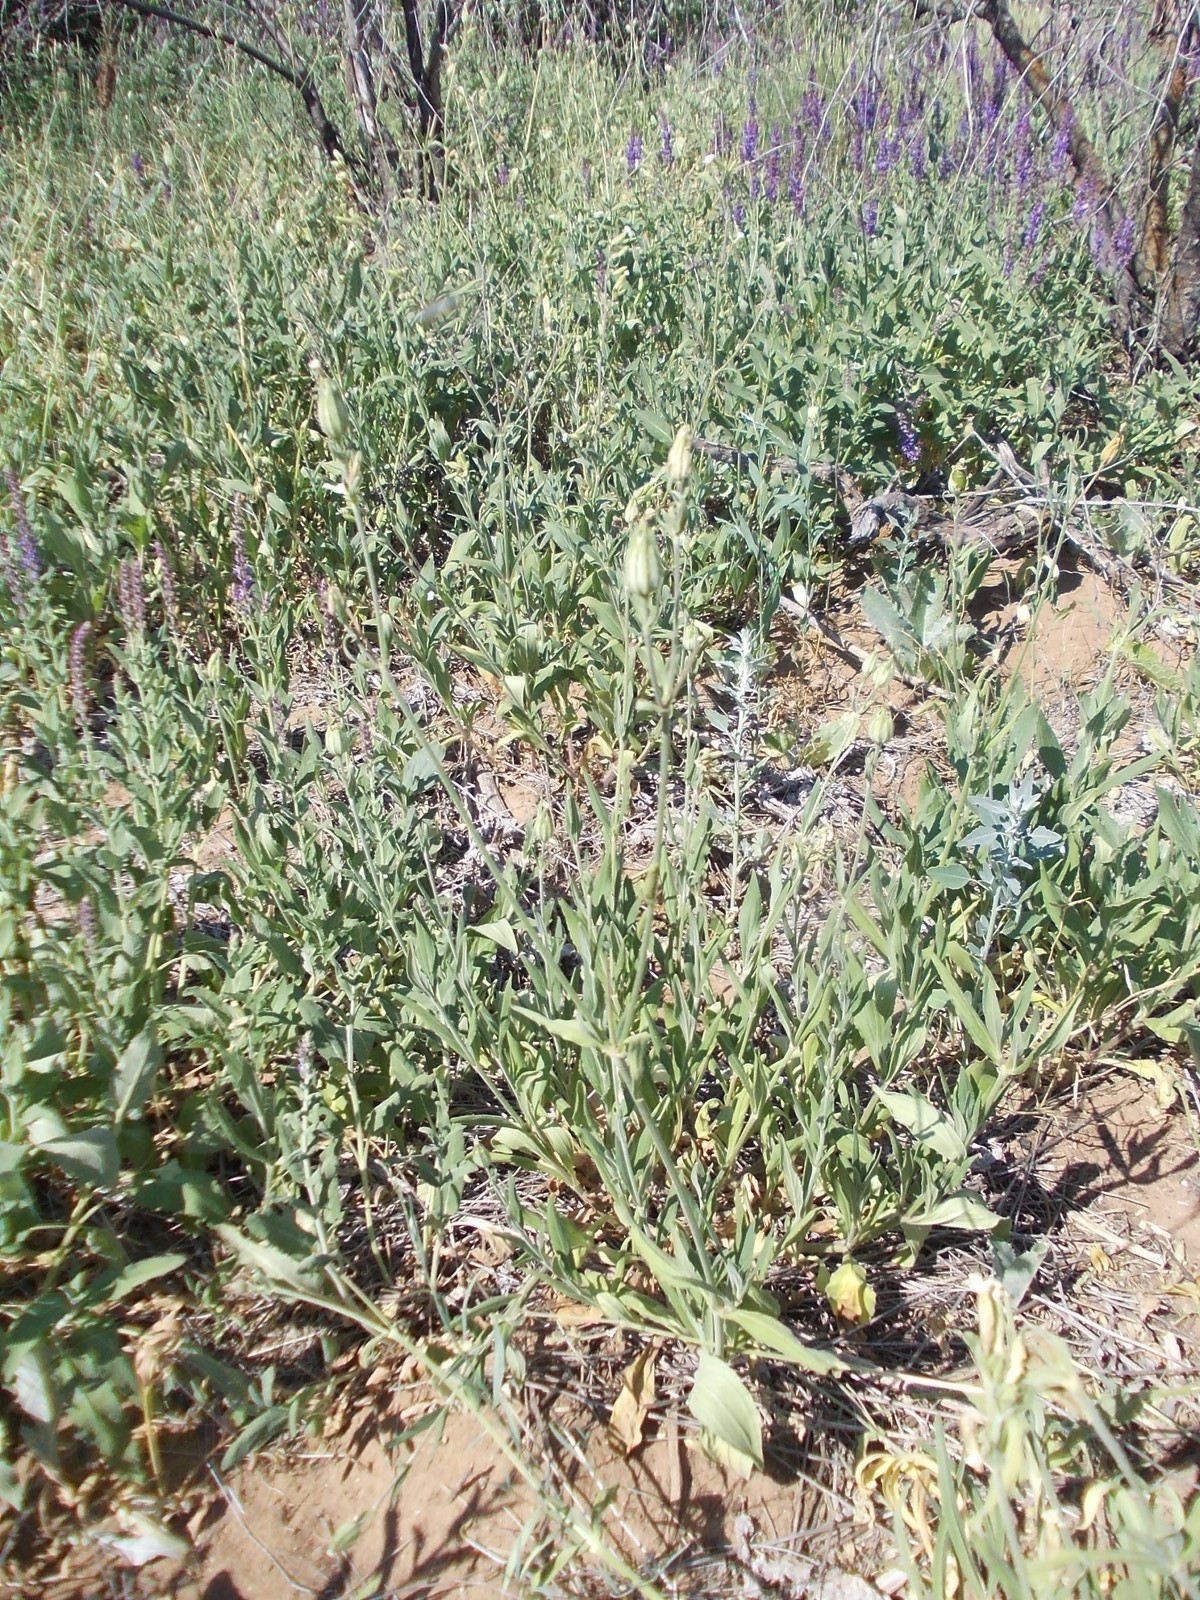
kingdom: Plantae
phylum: Tracheophyta
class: Magnoliopsida
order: Caryophyllales
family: Caryophyllaceae
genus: Silene
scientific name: Silene latifolia
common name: White campion
